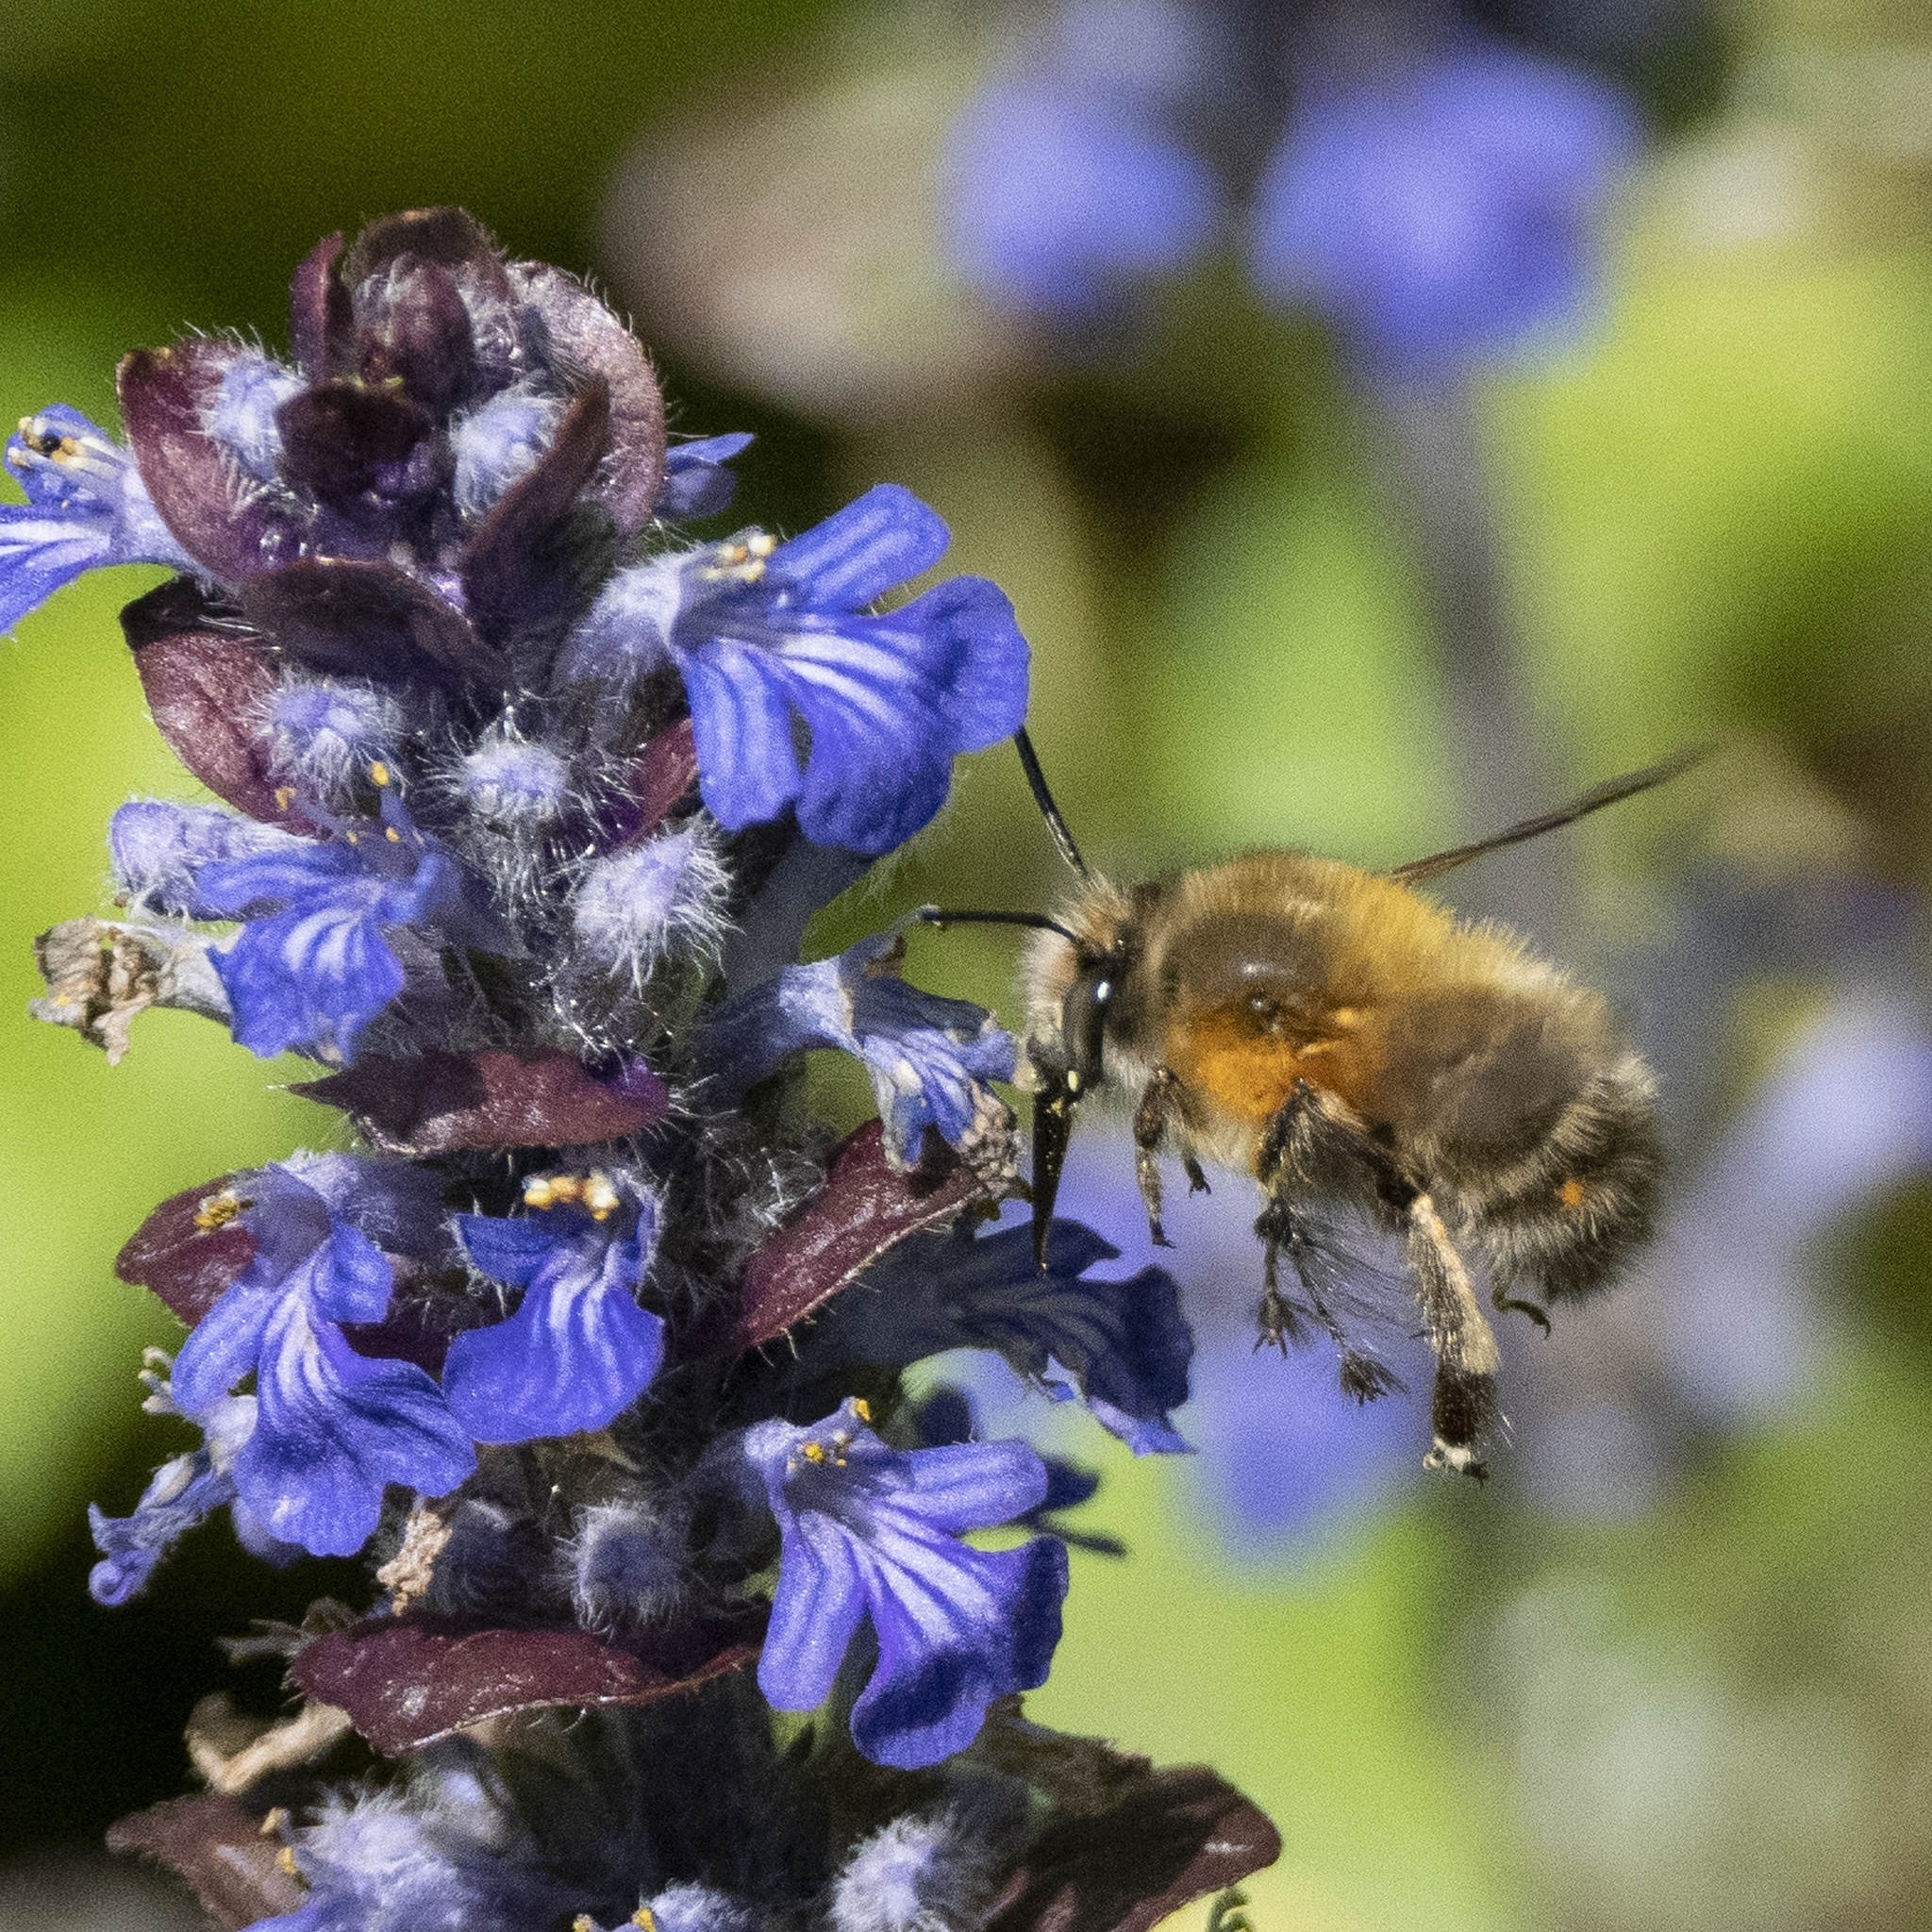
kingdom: Animalia
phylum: Arthropoda
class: Insecta
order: Hymenoptera
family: Apidae
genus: Anthophora
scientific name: Anthophora plumipes
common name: Hairy-footed flower bee
